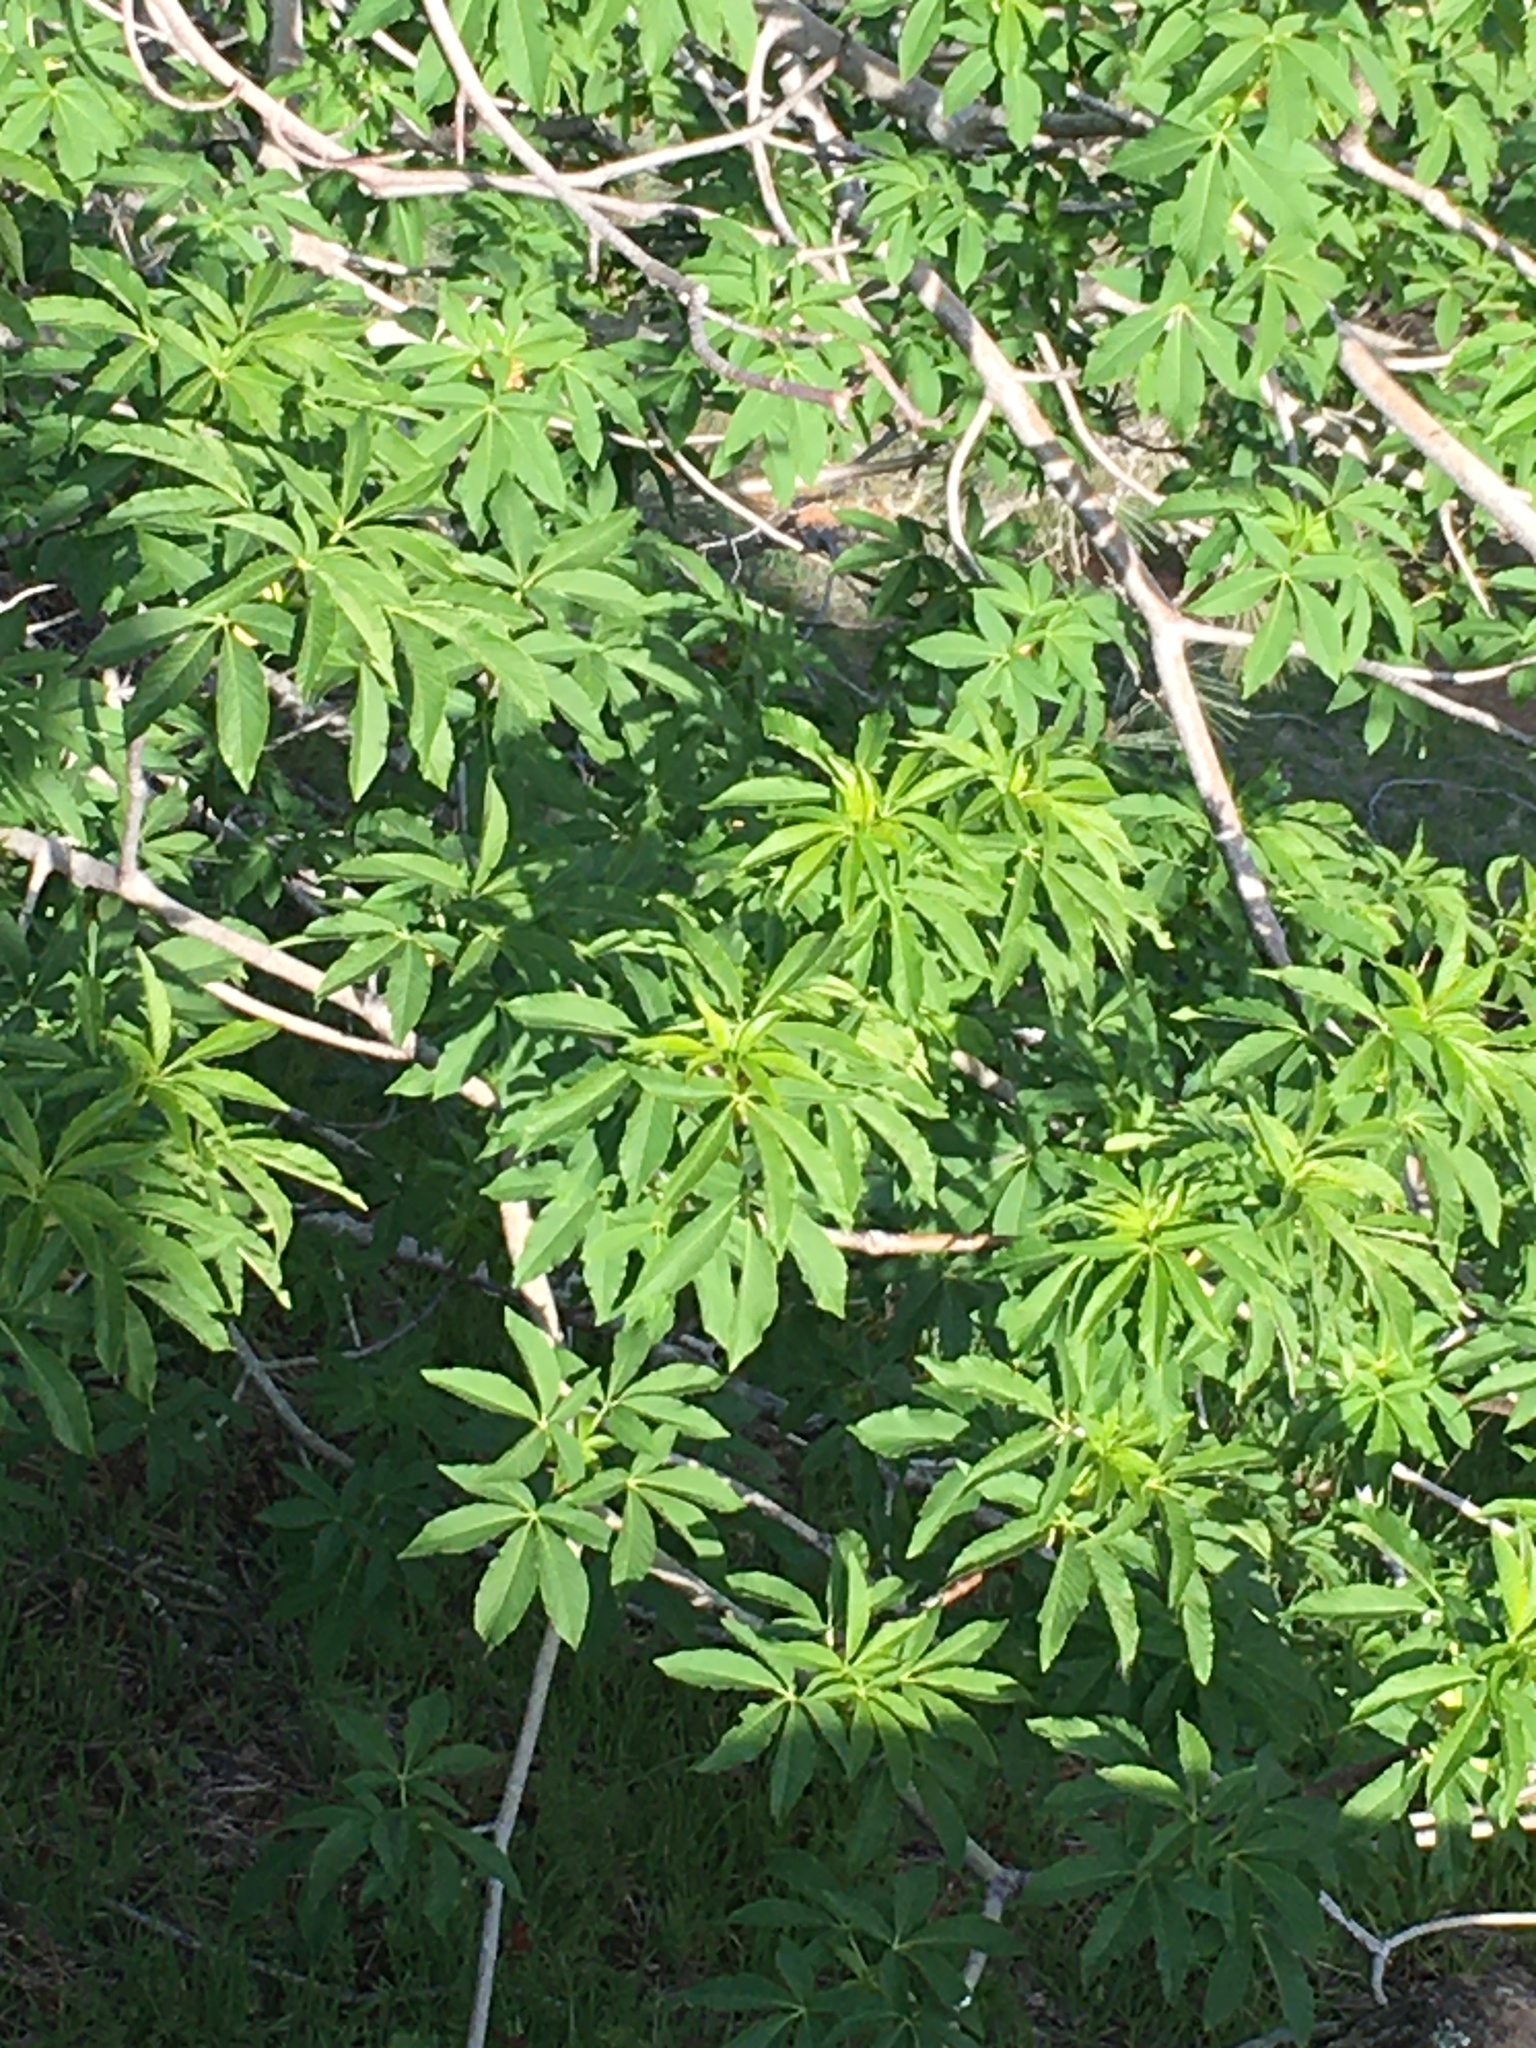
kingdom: Plantae
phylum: Tracheophyta
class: Magnoliopsida
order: Sapindales
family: Sapindaceae
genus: Aesculus
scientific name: Aesculus californica
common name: California buckeye
